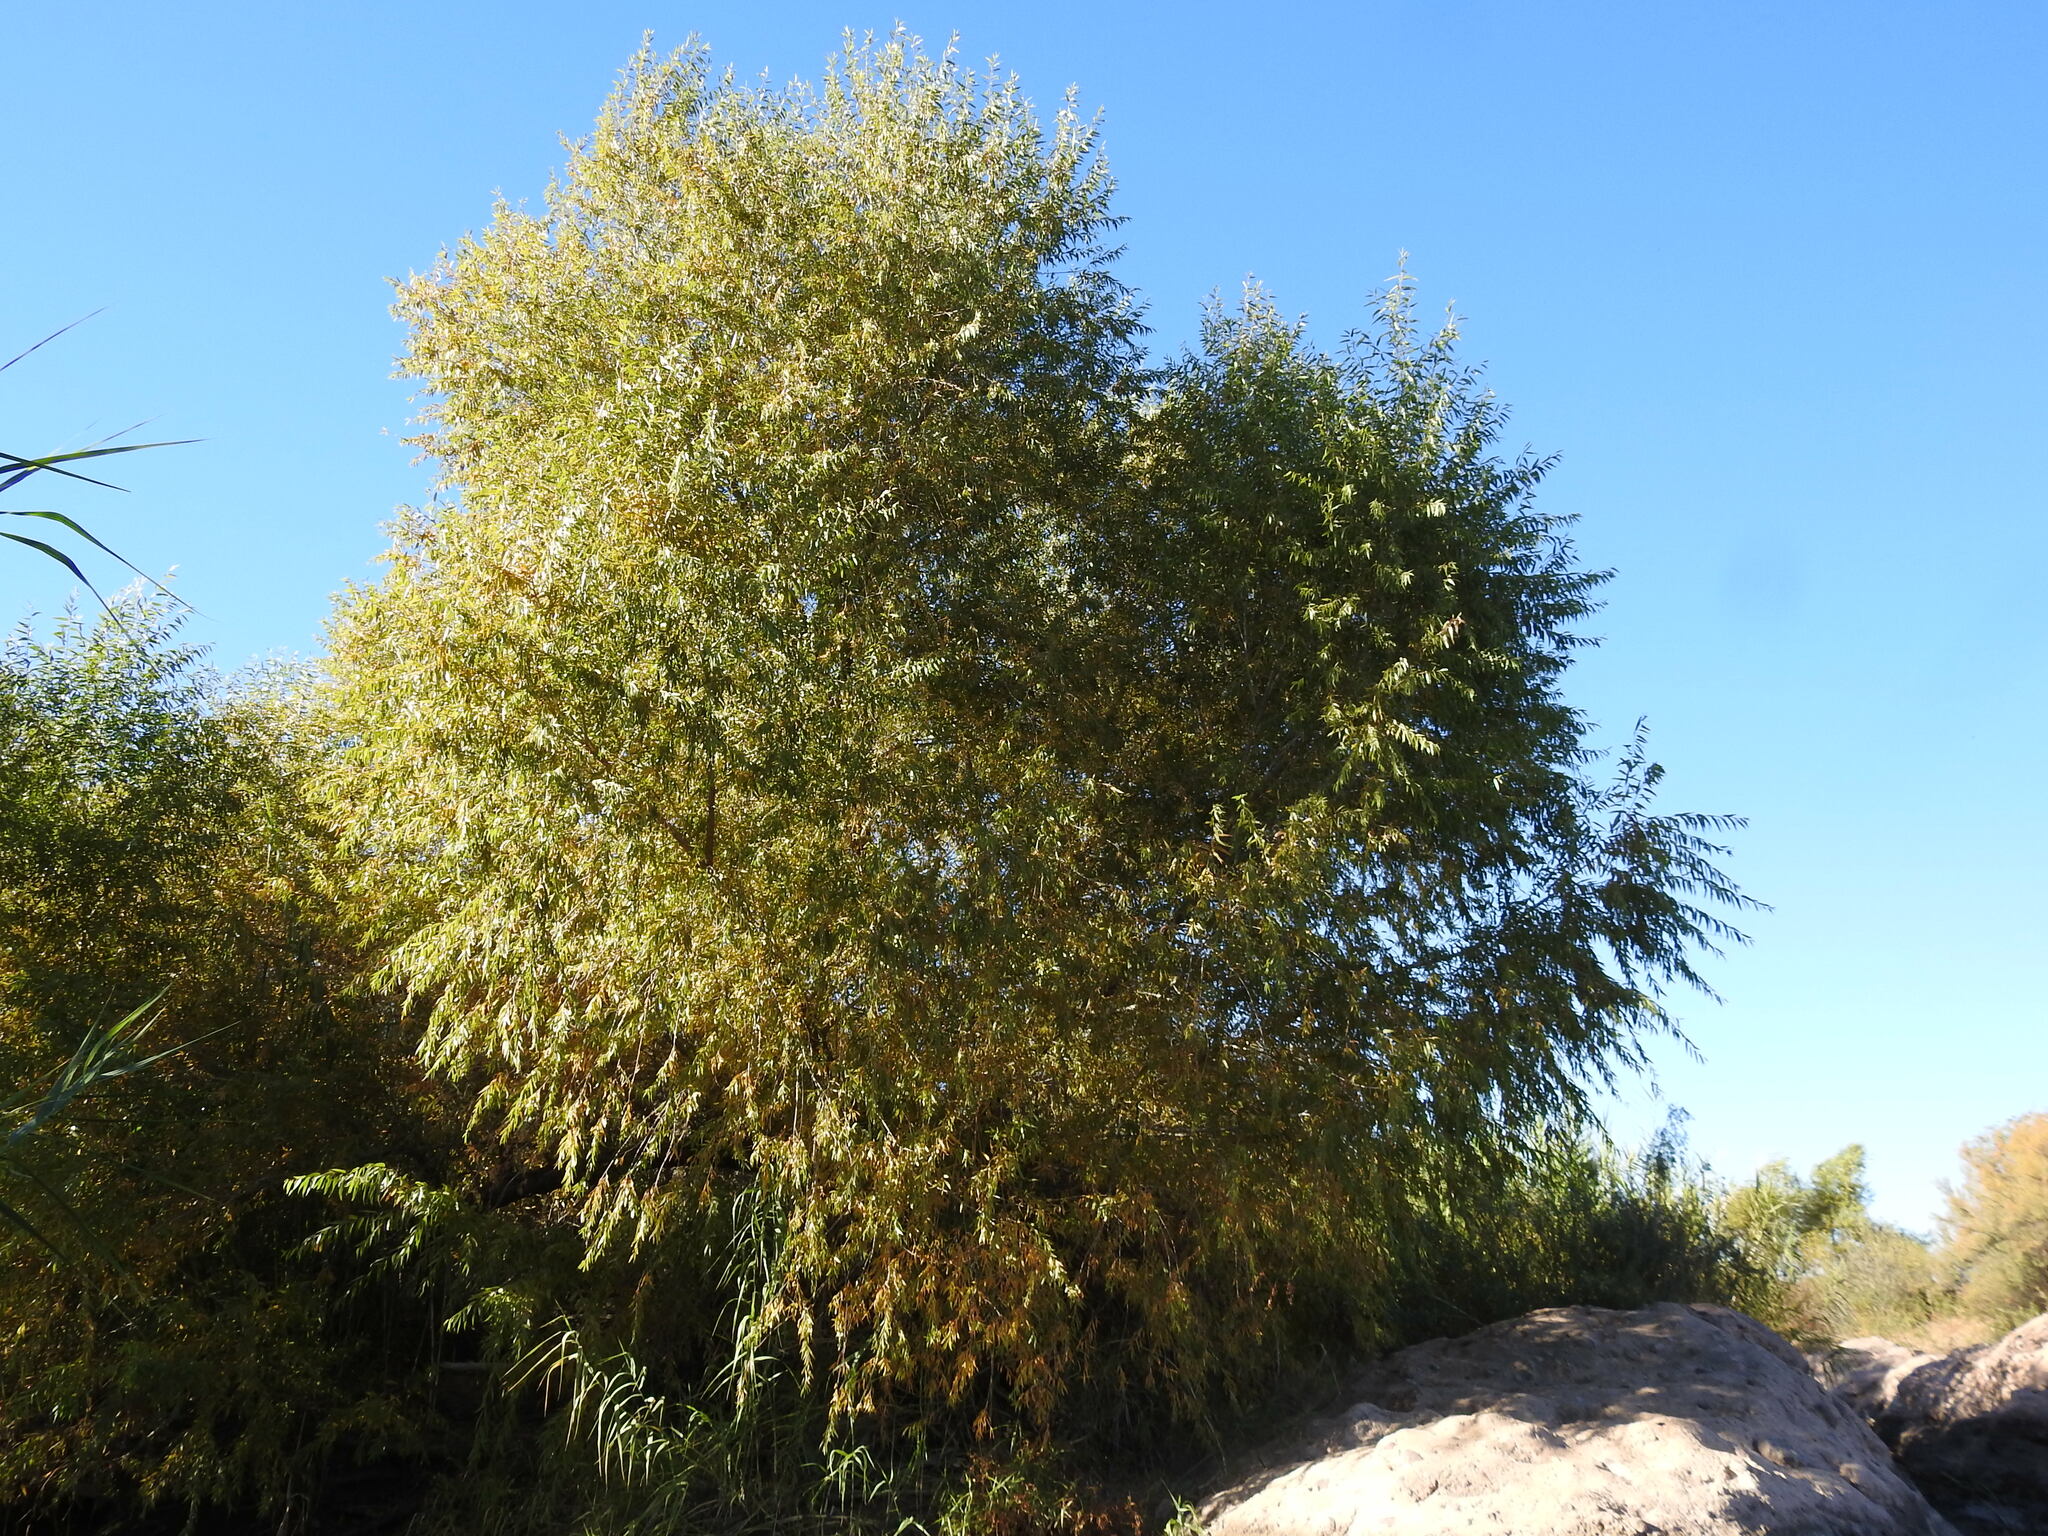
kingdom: Plantae
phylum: Tracheophyta
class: Magnoliopsida
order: Malpighiales
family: Salicaceae
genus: Salix
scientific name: Salix gooddingii
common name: Goodding's willow
